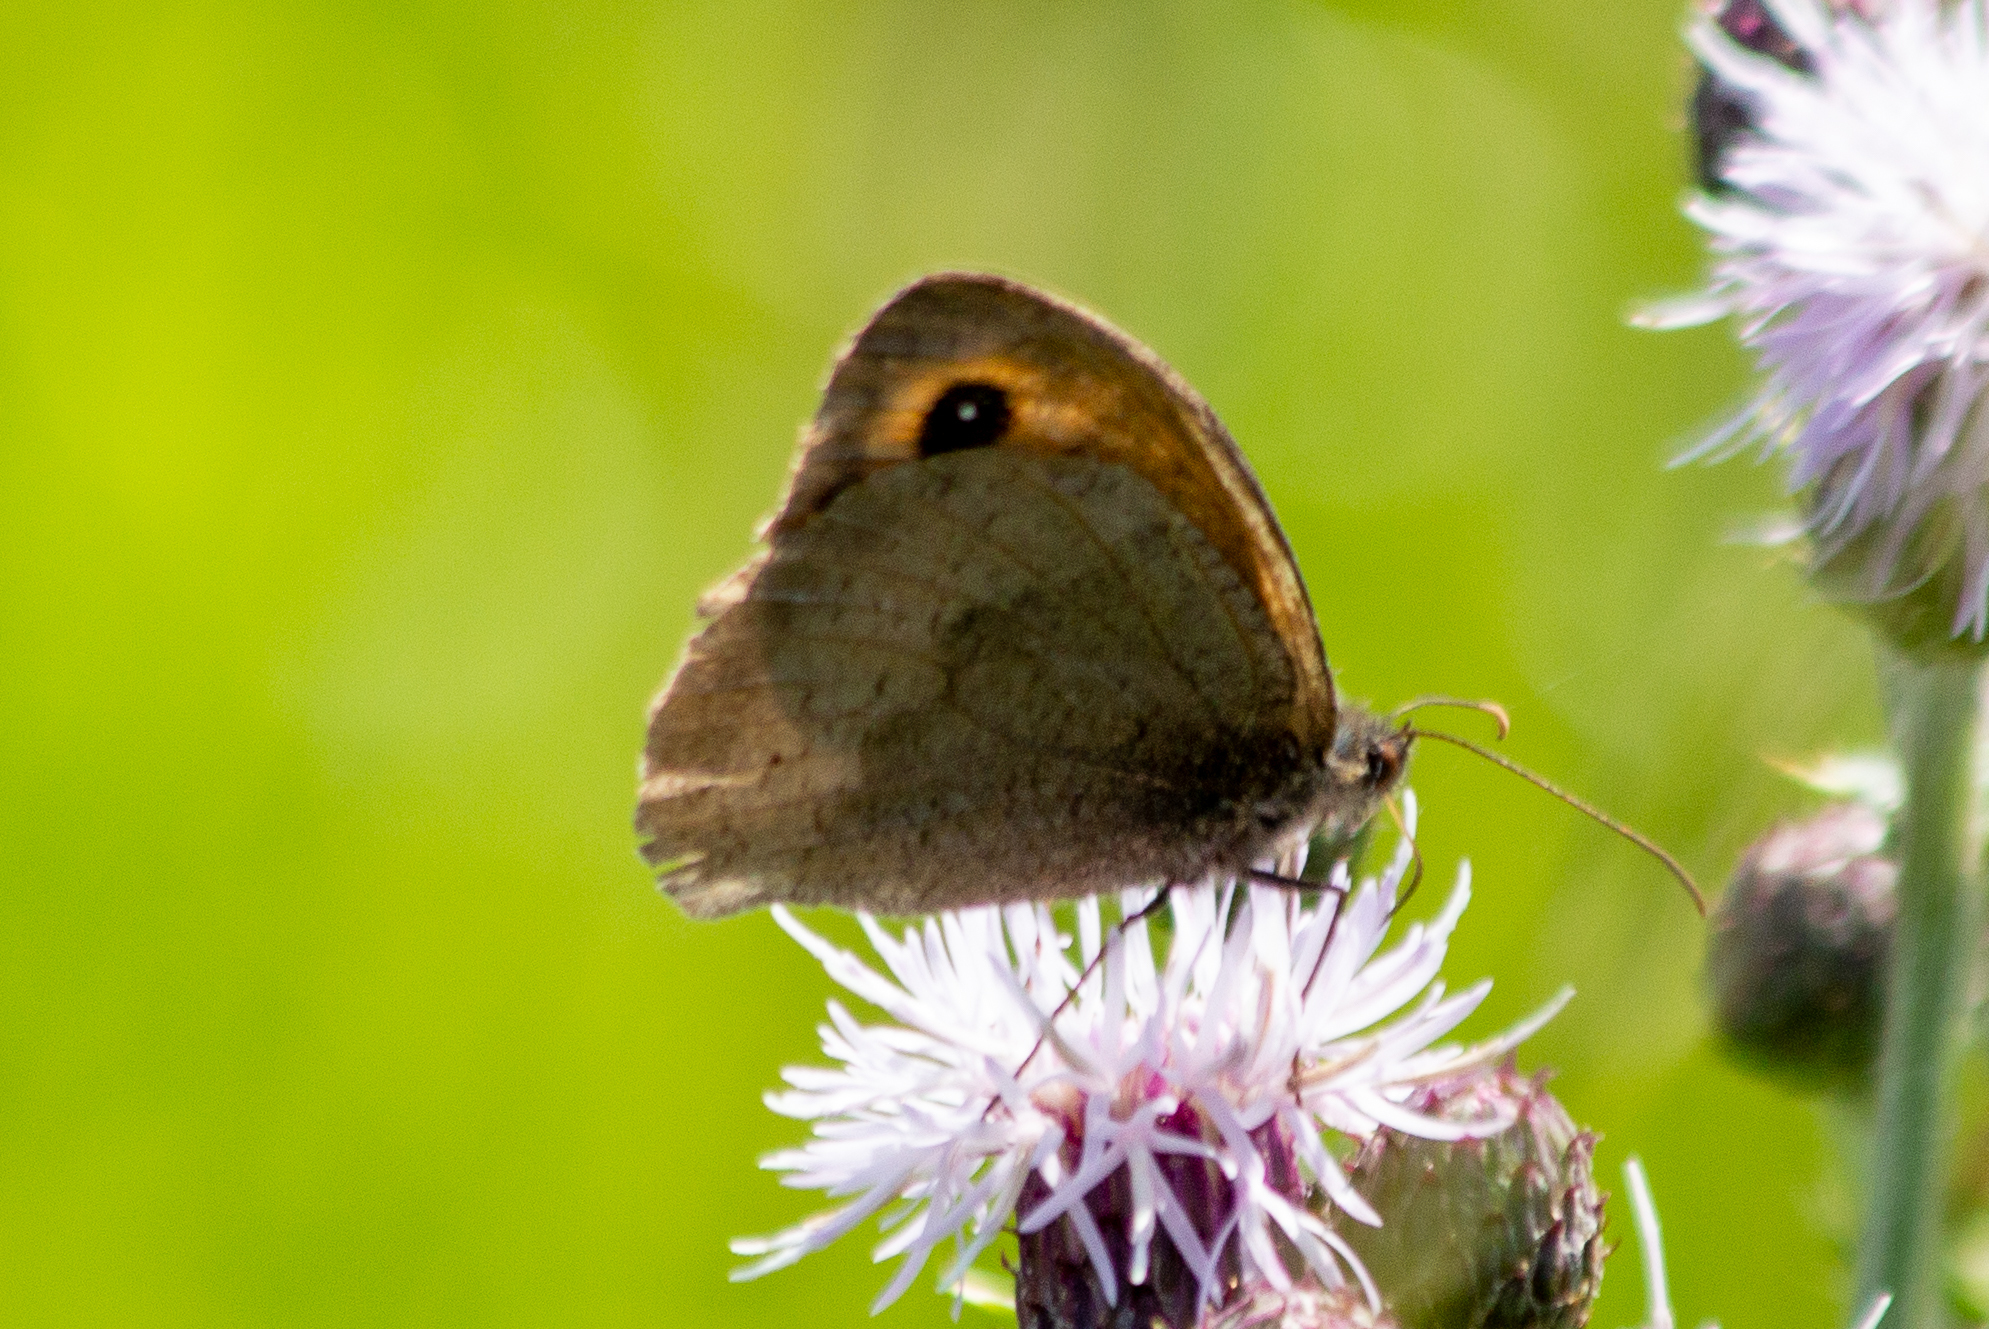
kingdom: Animalia
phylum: Arthropoda
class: Insecta
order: Lepidoptera
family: Nymphalidae
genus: Maniola
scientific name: Maniola jurtina
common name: Meadow brown
